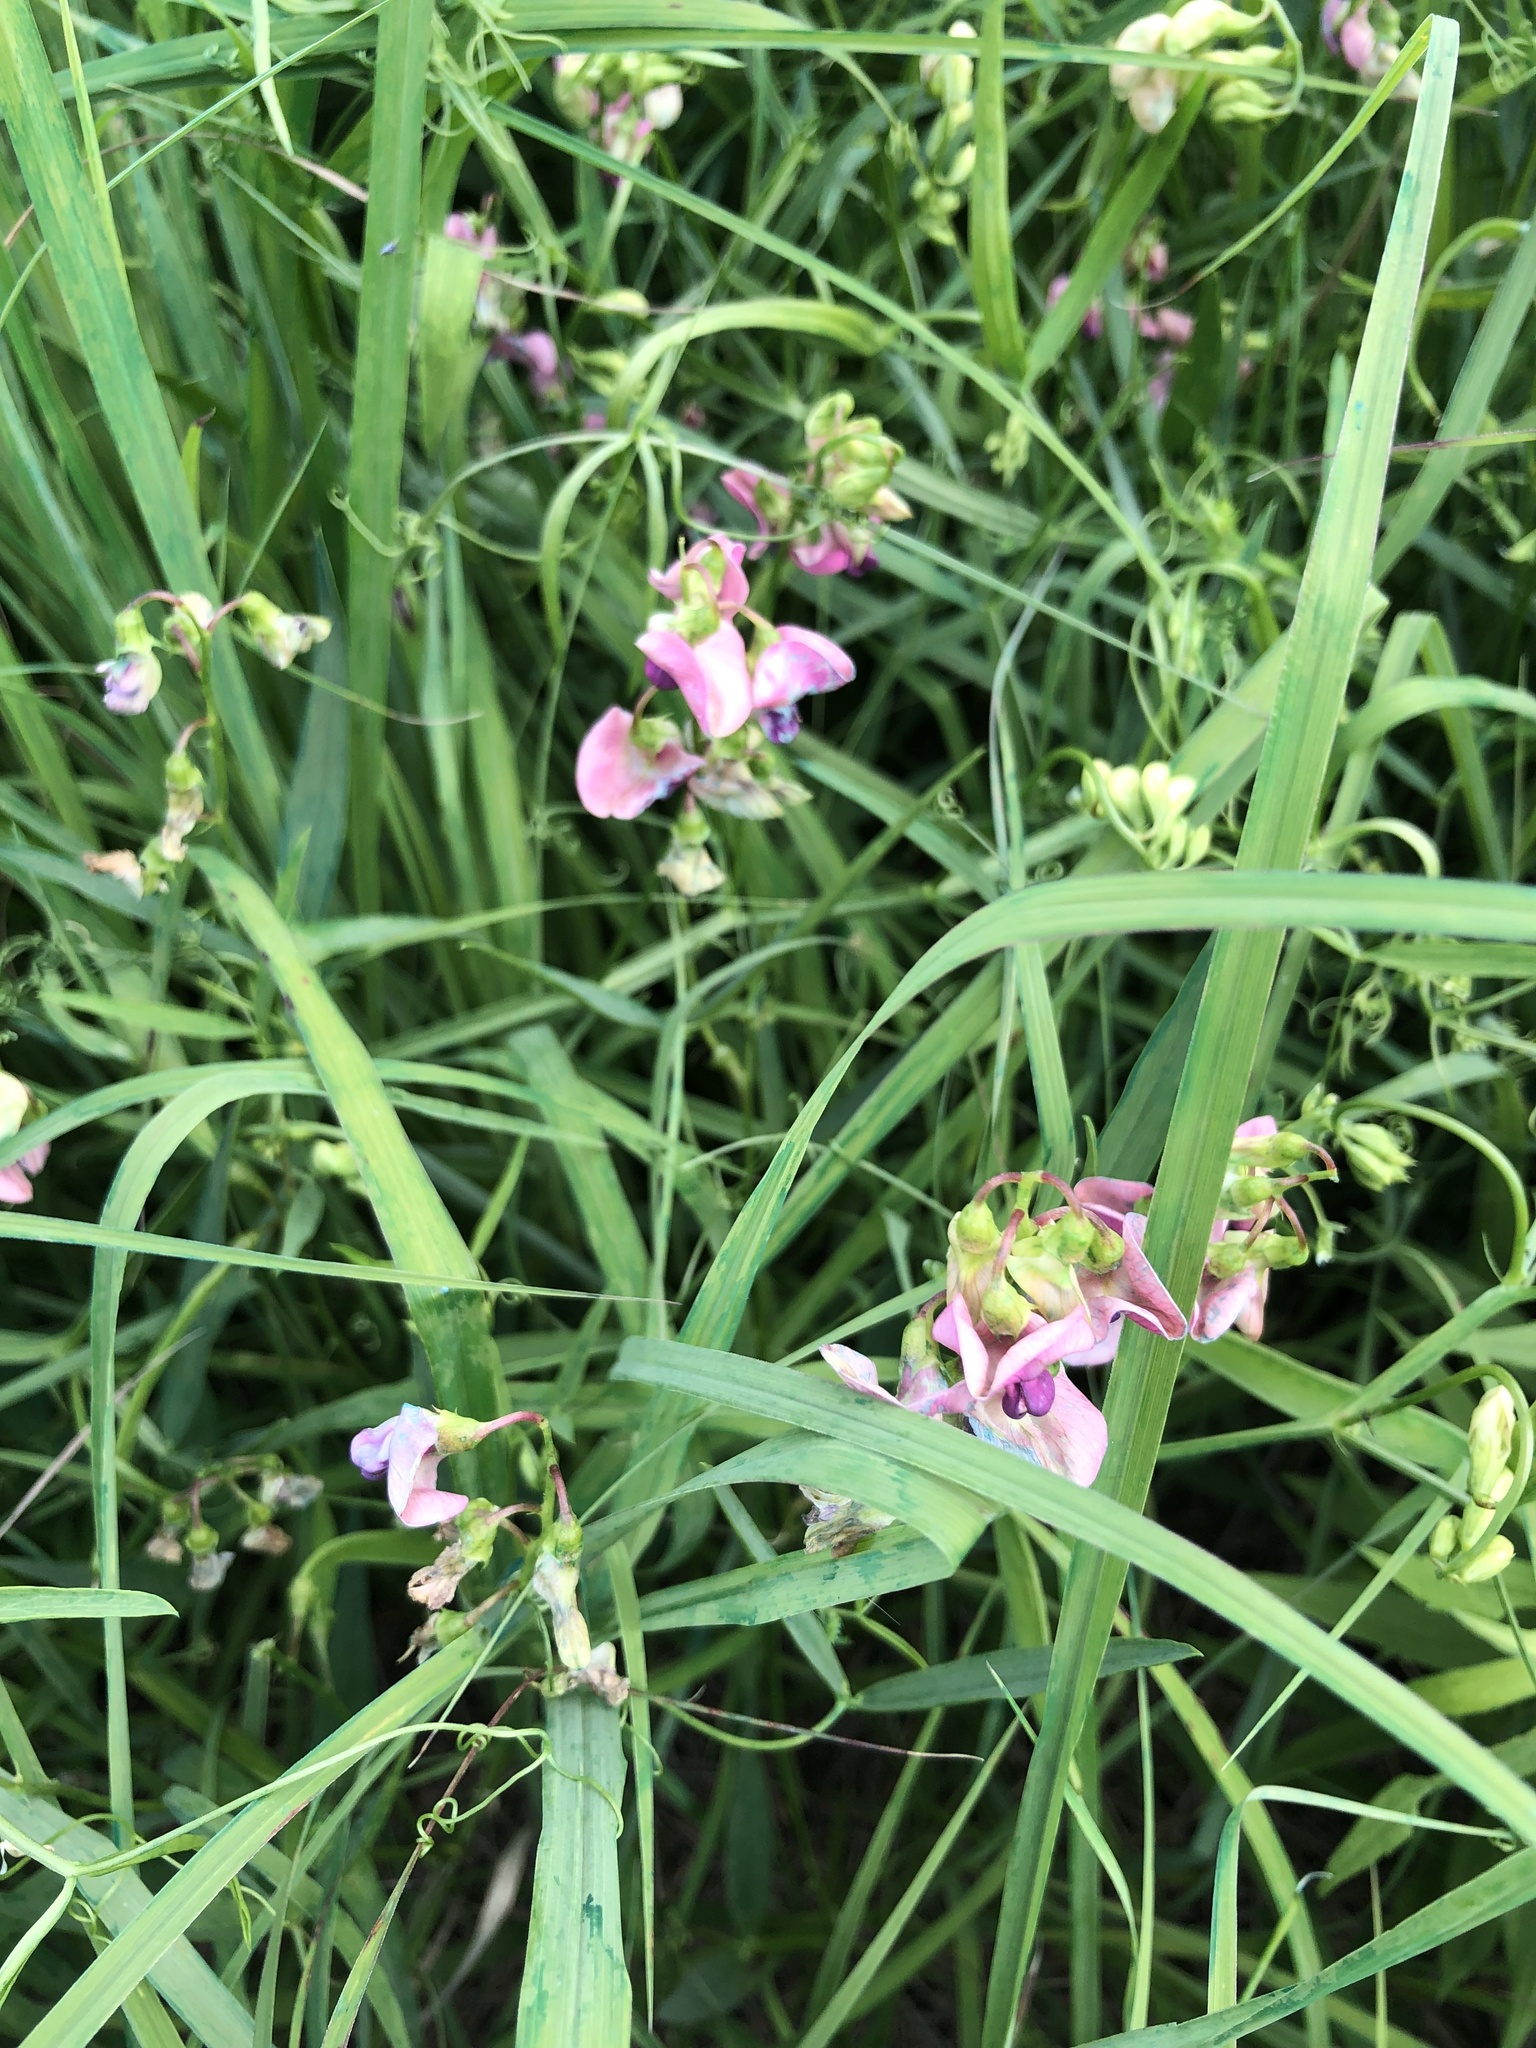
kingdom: Plantae
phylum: Tracheophyta
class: Magnoliopsida
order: Fabales
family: Fabaceae
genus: Lathyrus
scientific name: Lathyrus sylvestris
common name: Flat pea
